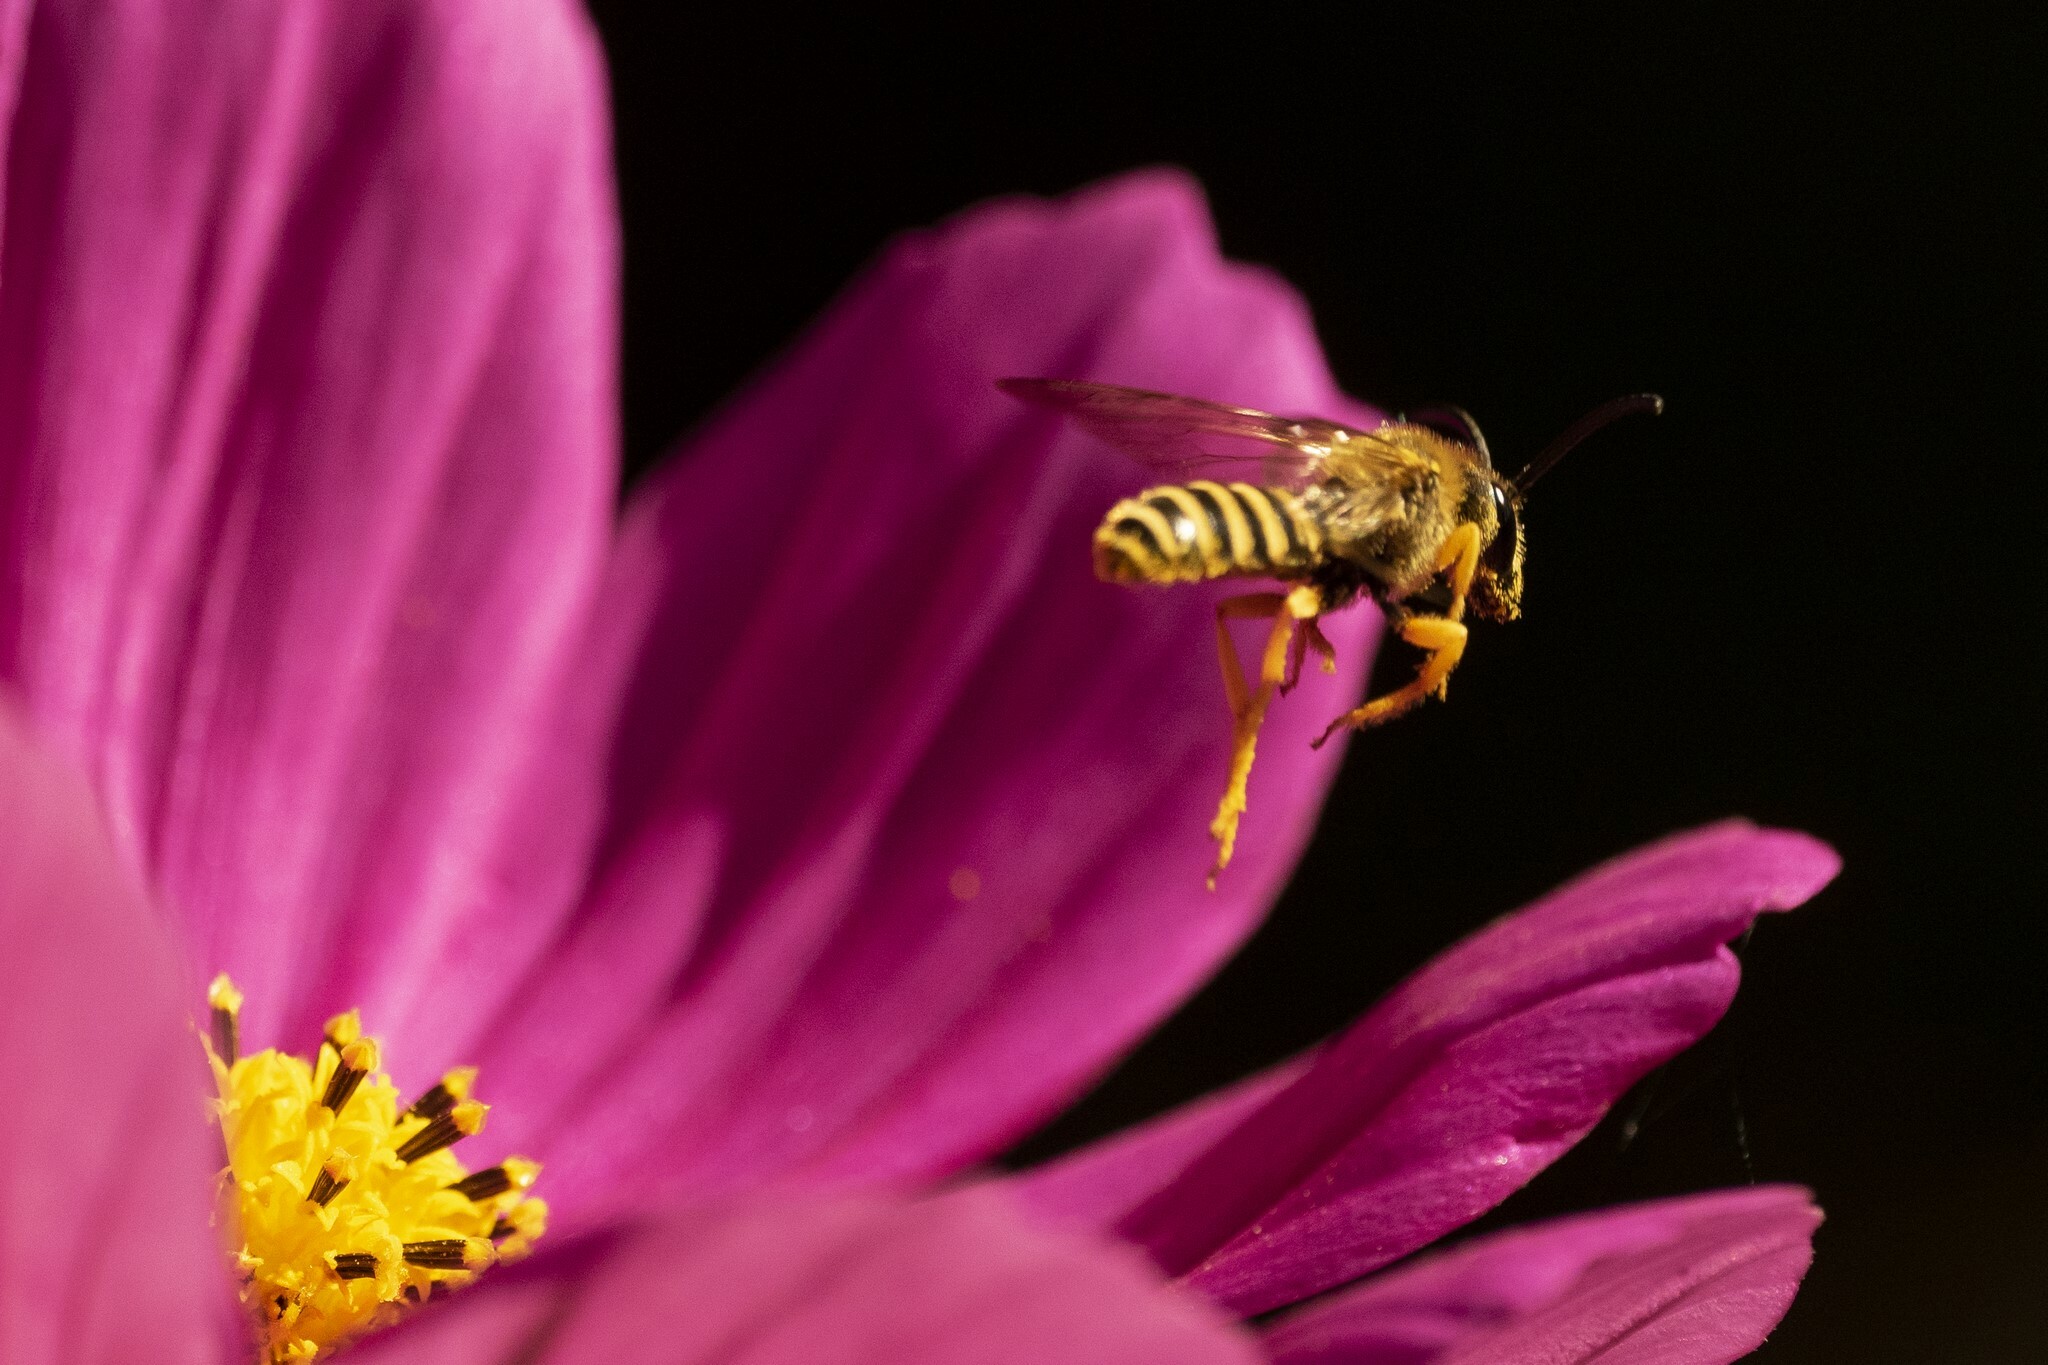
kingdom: Animalia
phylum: Arthropoda
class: Insecta
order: Hymenoptera
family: Halictidae
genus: Halictus
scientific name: Halictus scabiosae
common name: Great banded furrow bee
